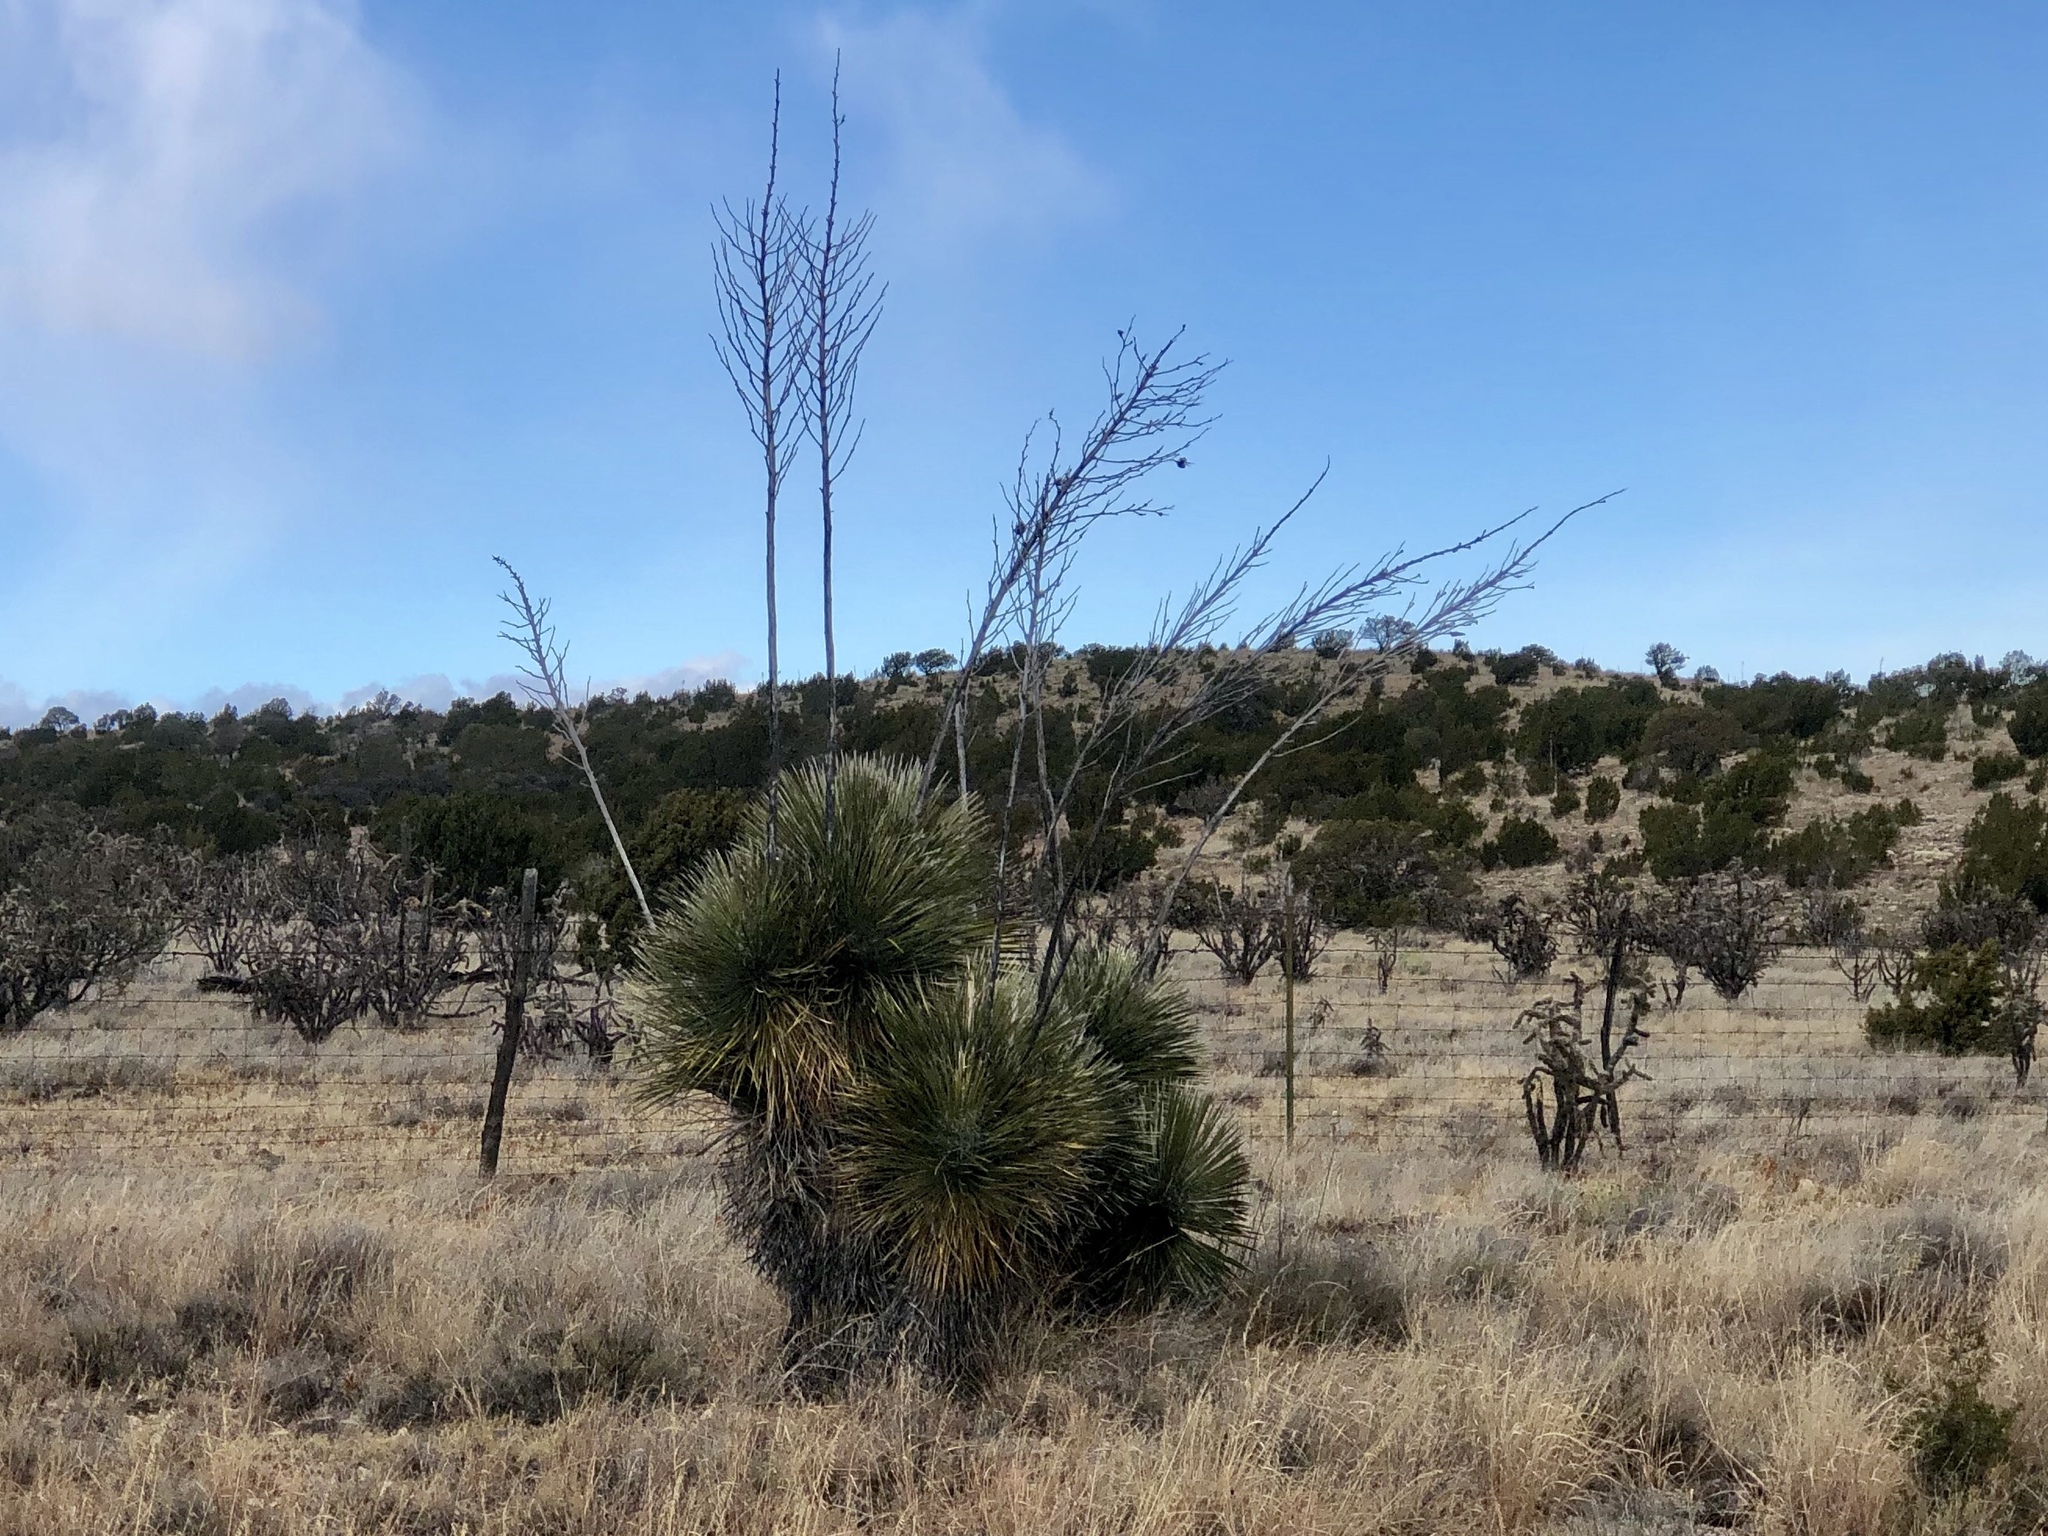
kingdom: Plantae
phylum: Tracheophyta
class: Liliopsida
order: Asparagales
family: Asparagaceae
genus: Yucca
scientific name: Yucca elata
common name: Palmella
